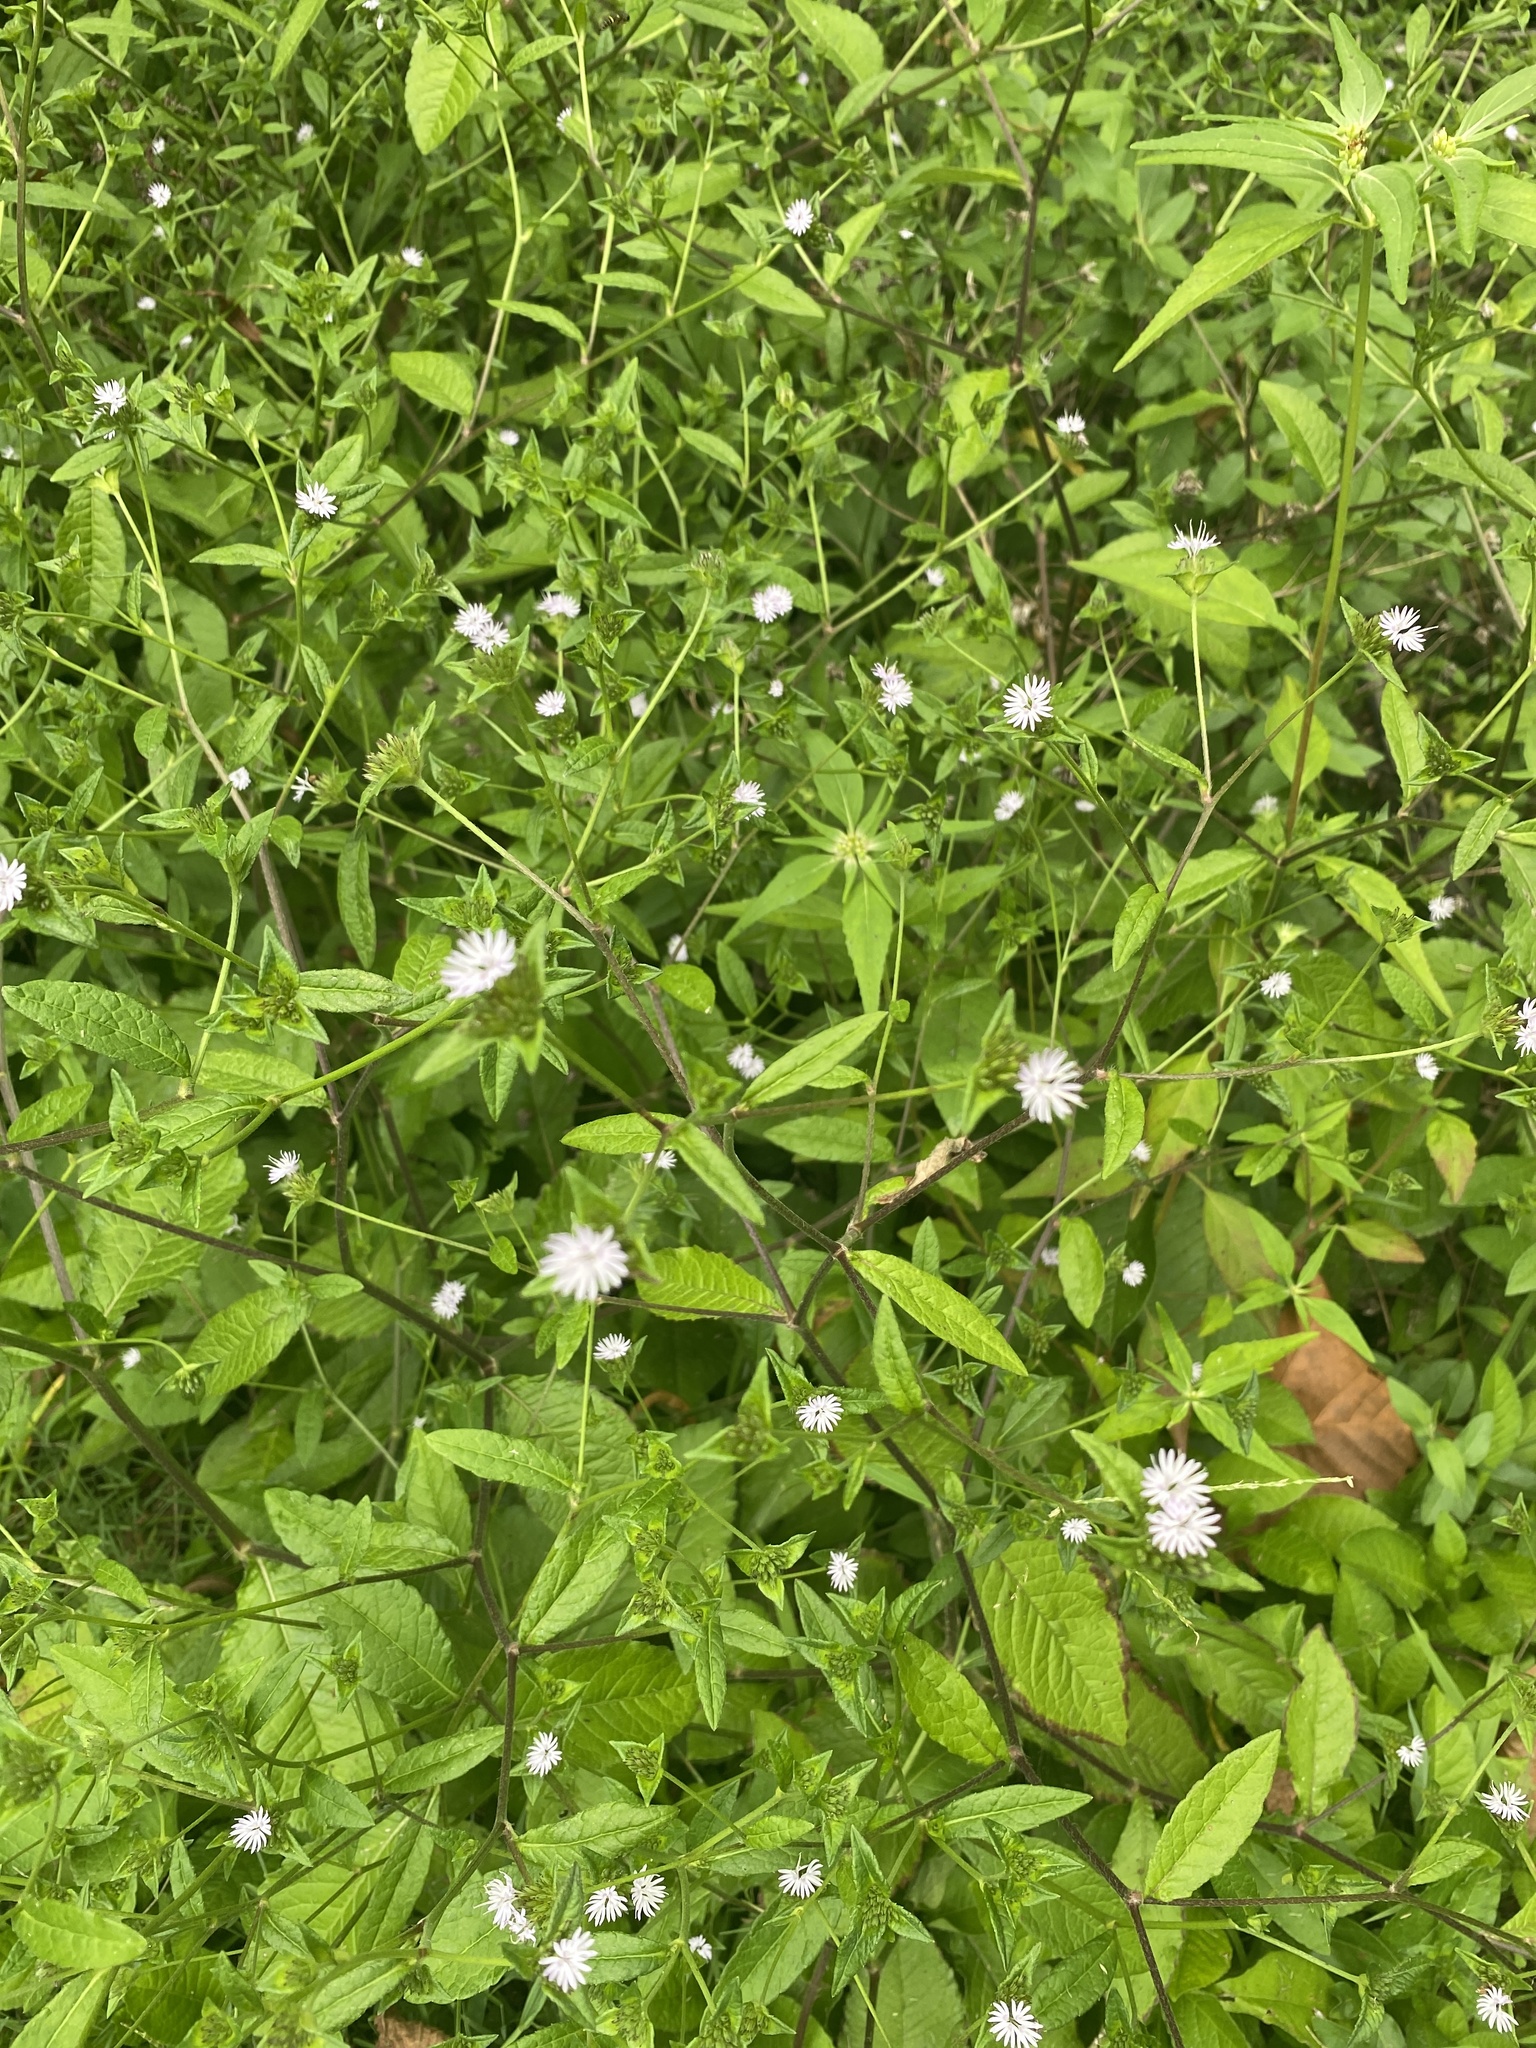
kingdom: Plantae
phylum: Tracheophyta
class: Magnoliopsida
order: Asterales
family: Asteraceae
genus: Elephantopus
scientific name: Elephantopus carolinianus
